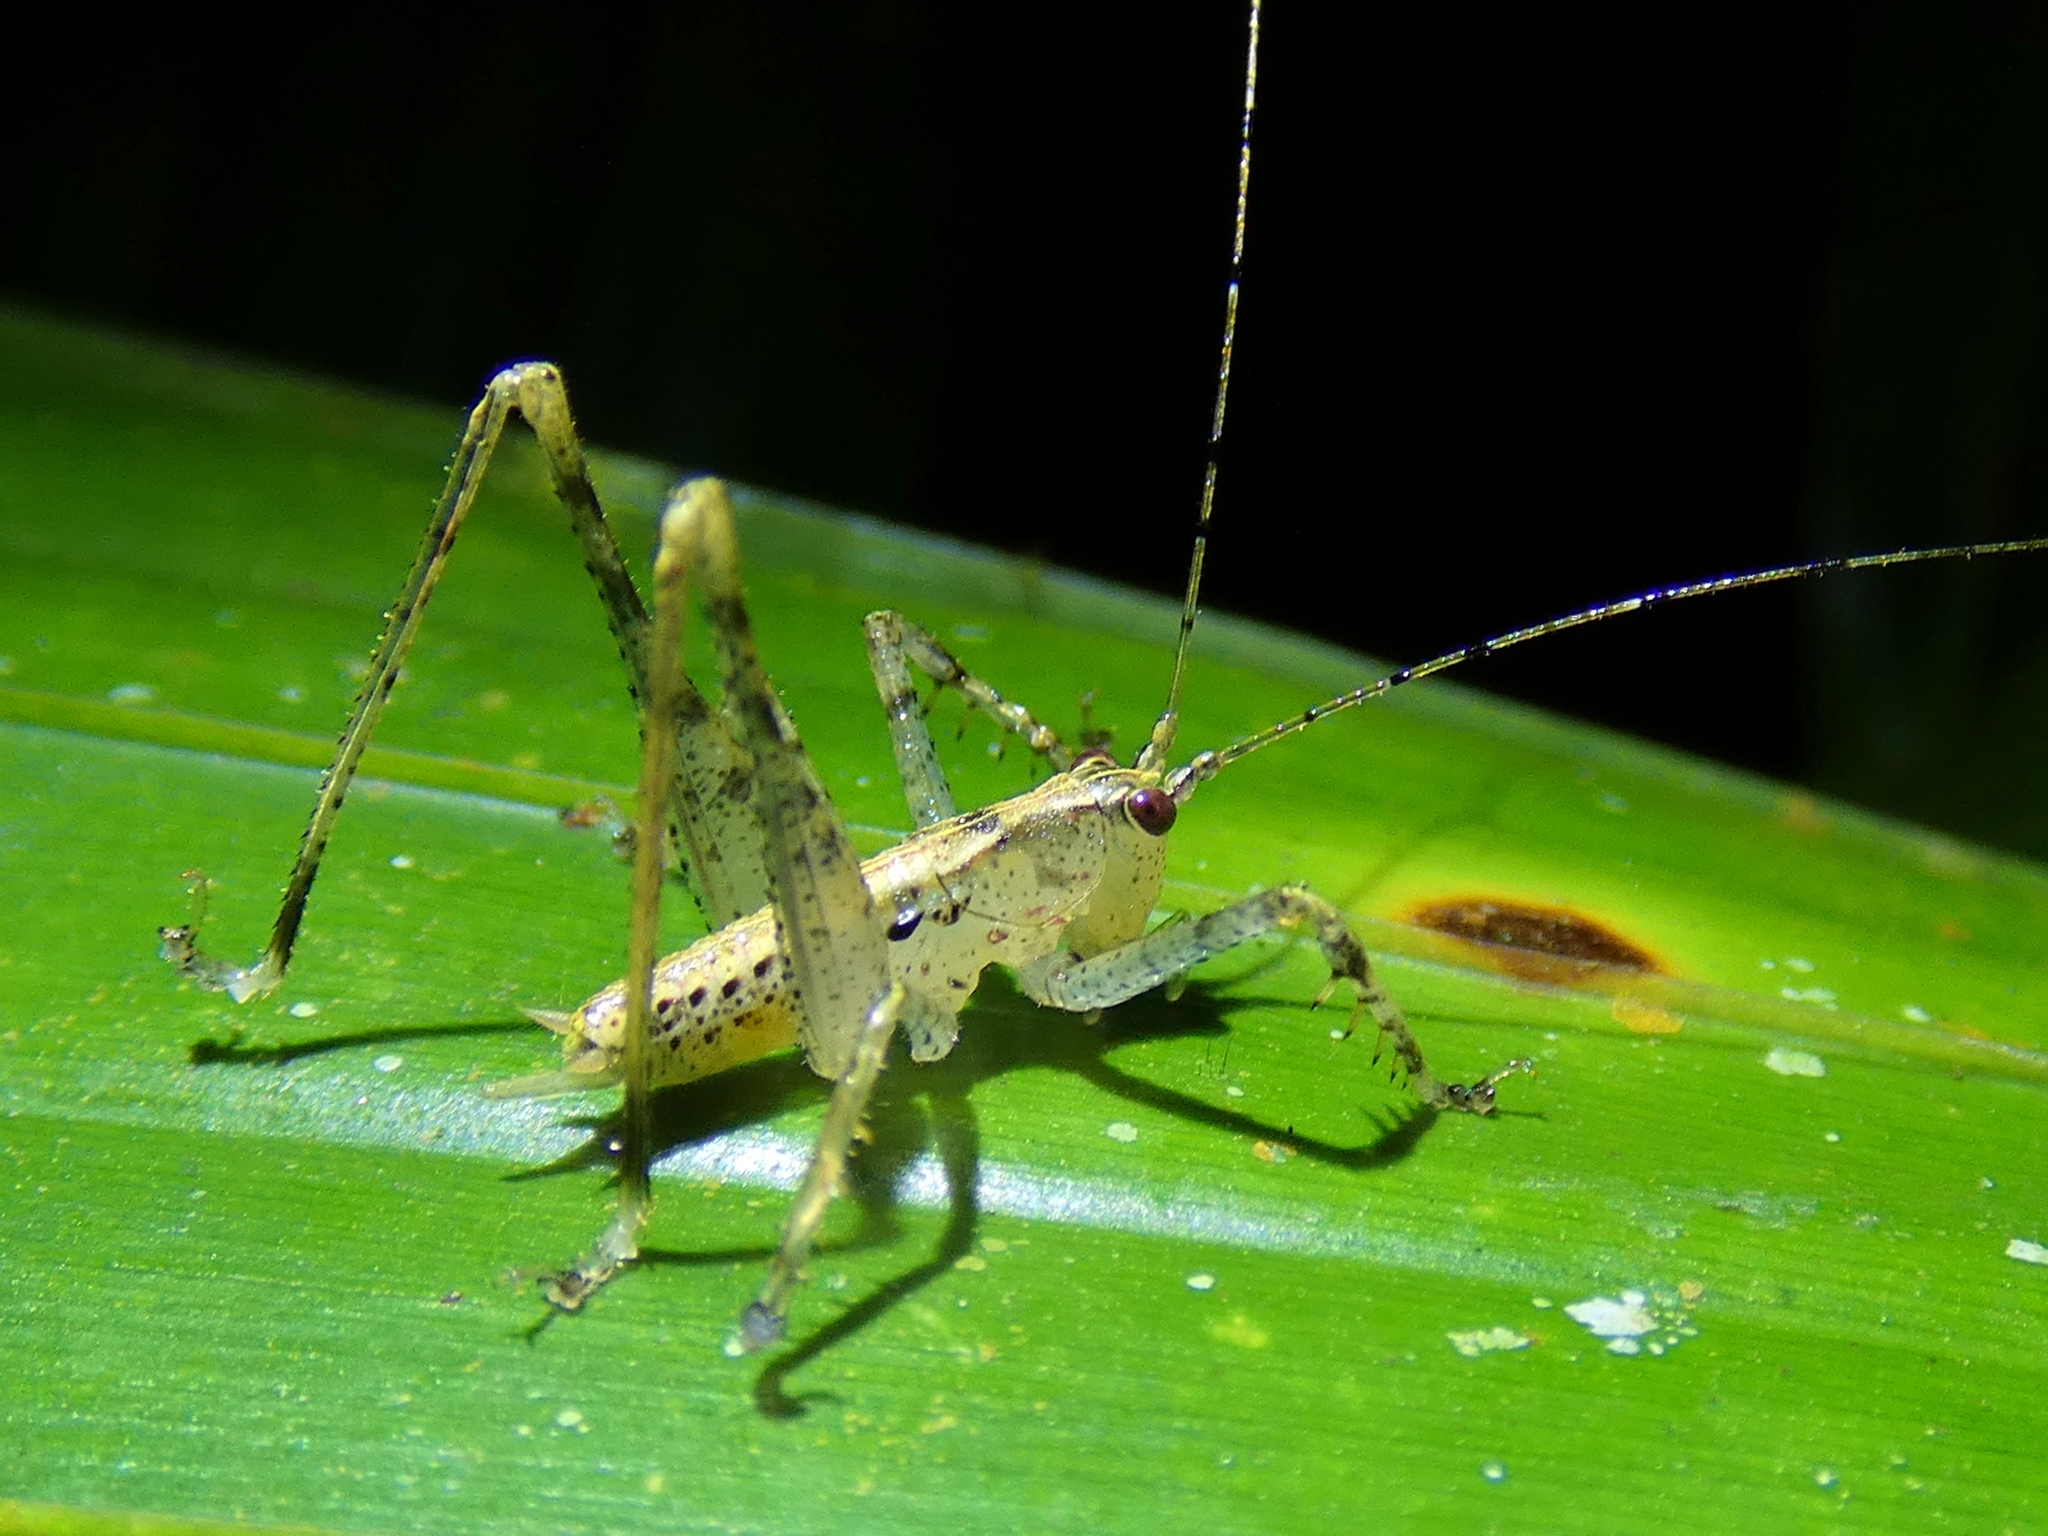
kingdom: Animalia
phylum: Arthropoda
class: Insecta
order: Orthoptera
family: Tettigoniidae
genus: Xingbaoia
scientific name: Xingbaoia karakara
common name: Jin's ginger katydid
